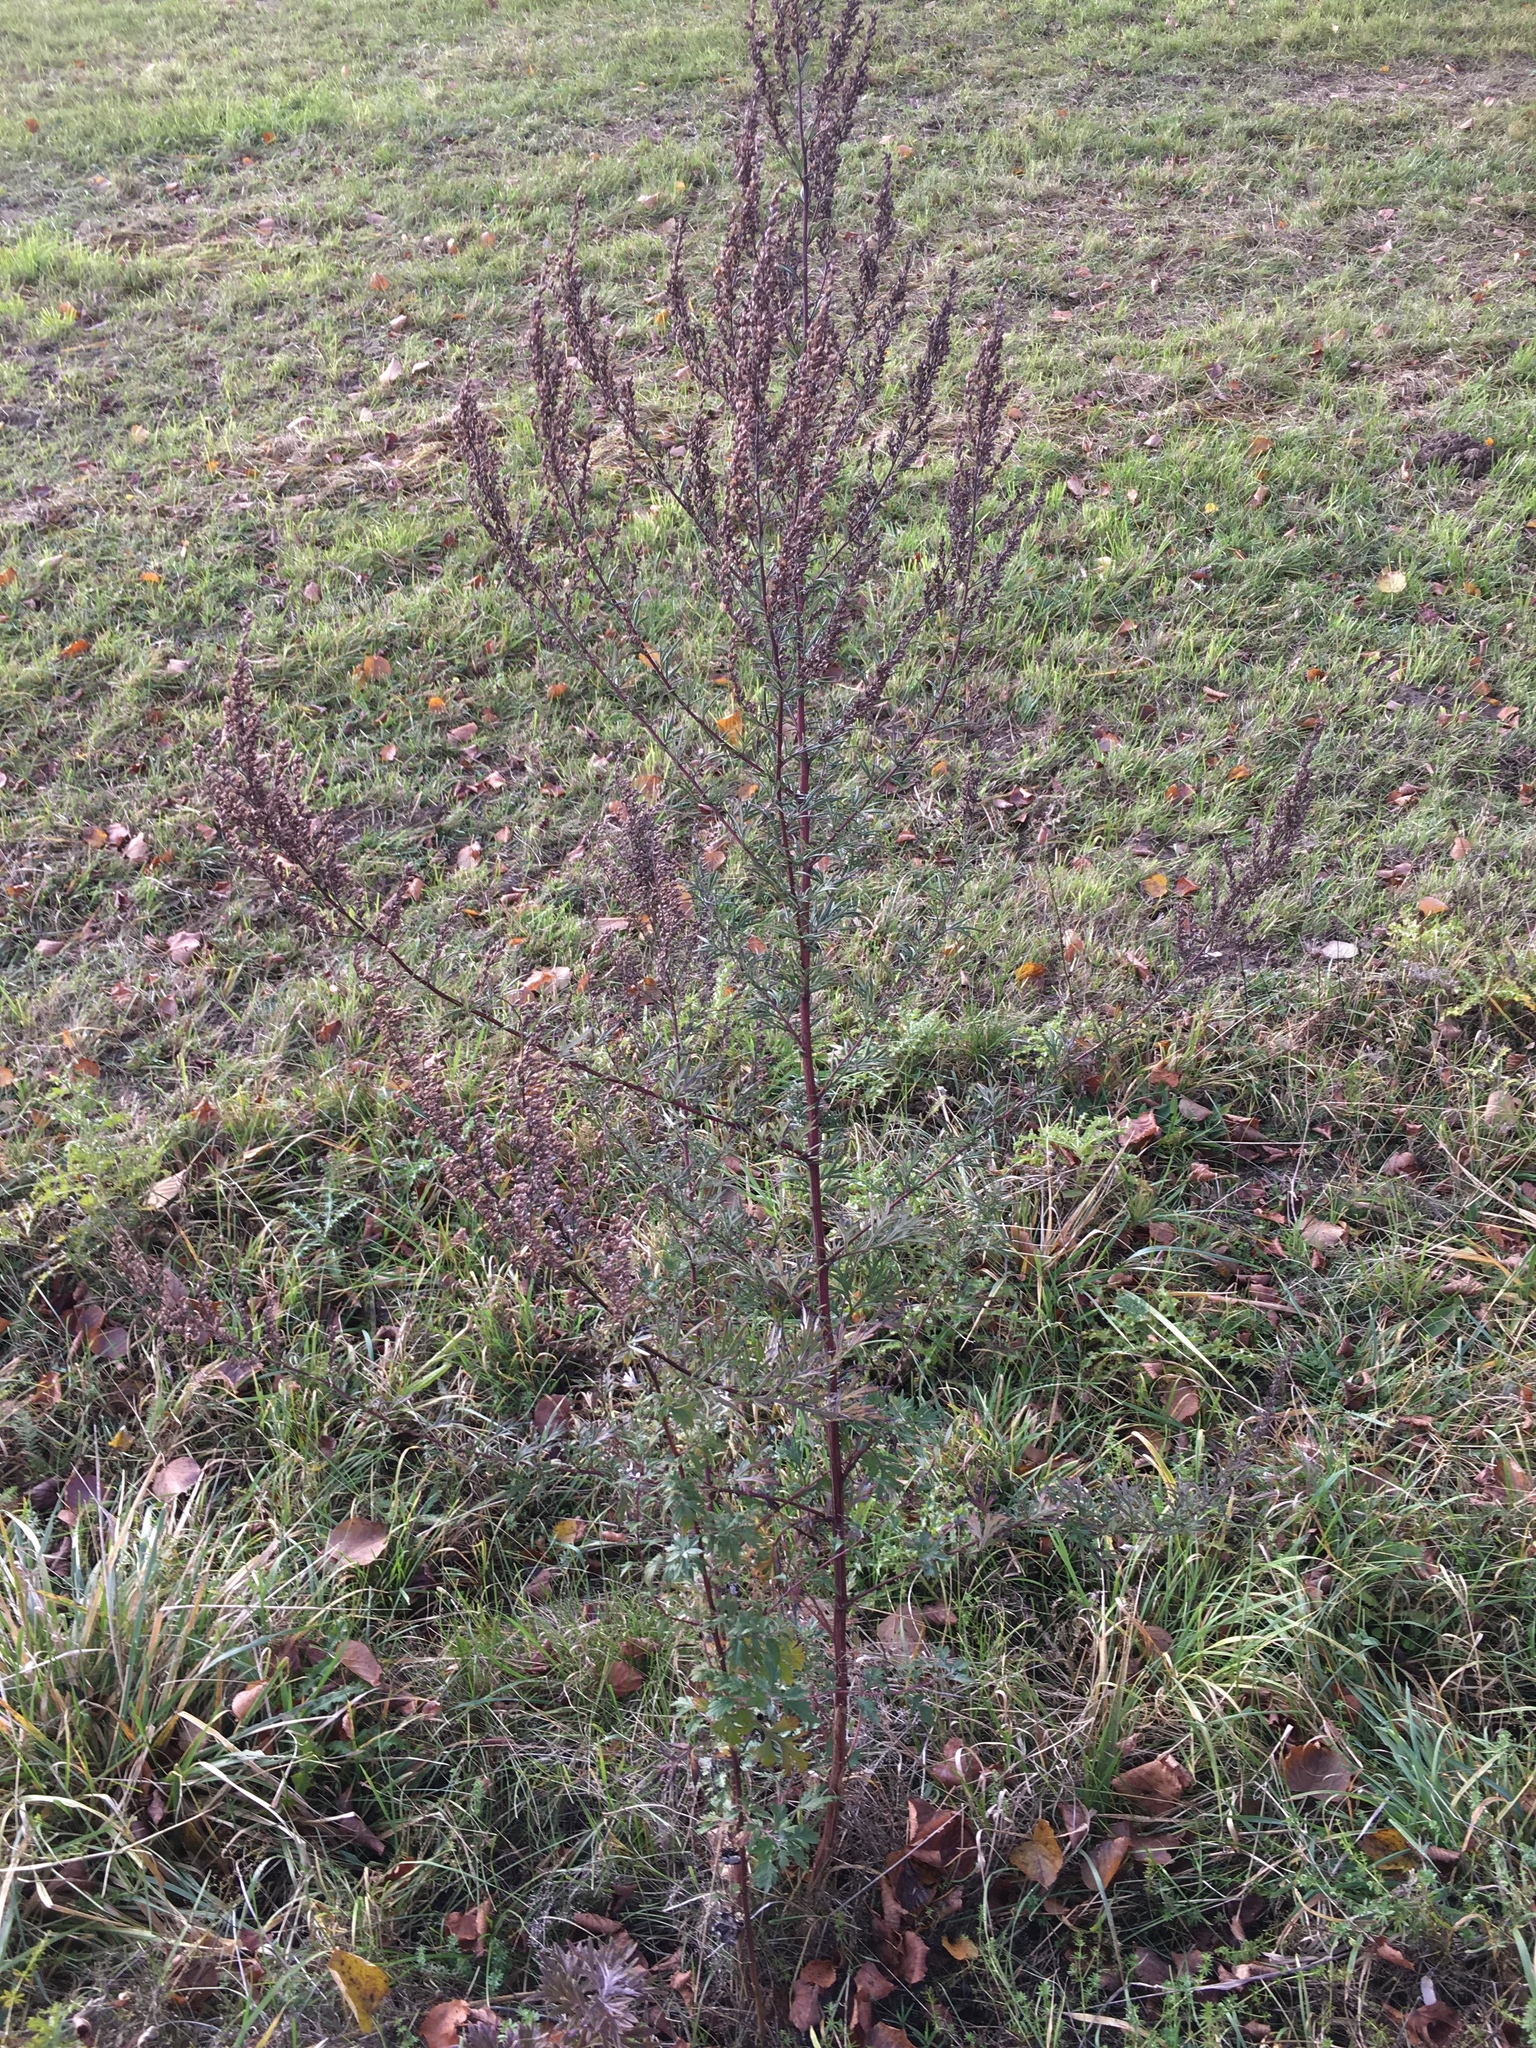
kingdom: Plantae
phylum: Tracheophyta
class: Magnoliopsida
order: Asterales
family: Asteraceae
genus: Artemisia
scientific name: Artemisia vulgaris
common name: Mugwort
